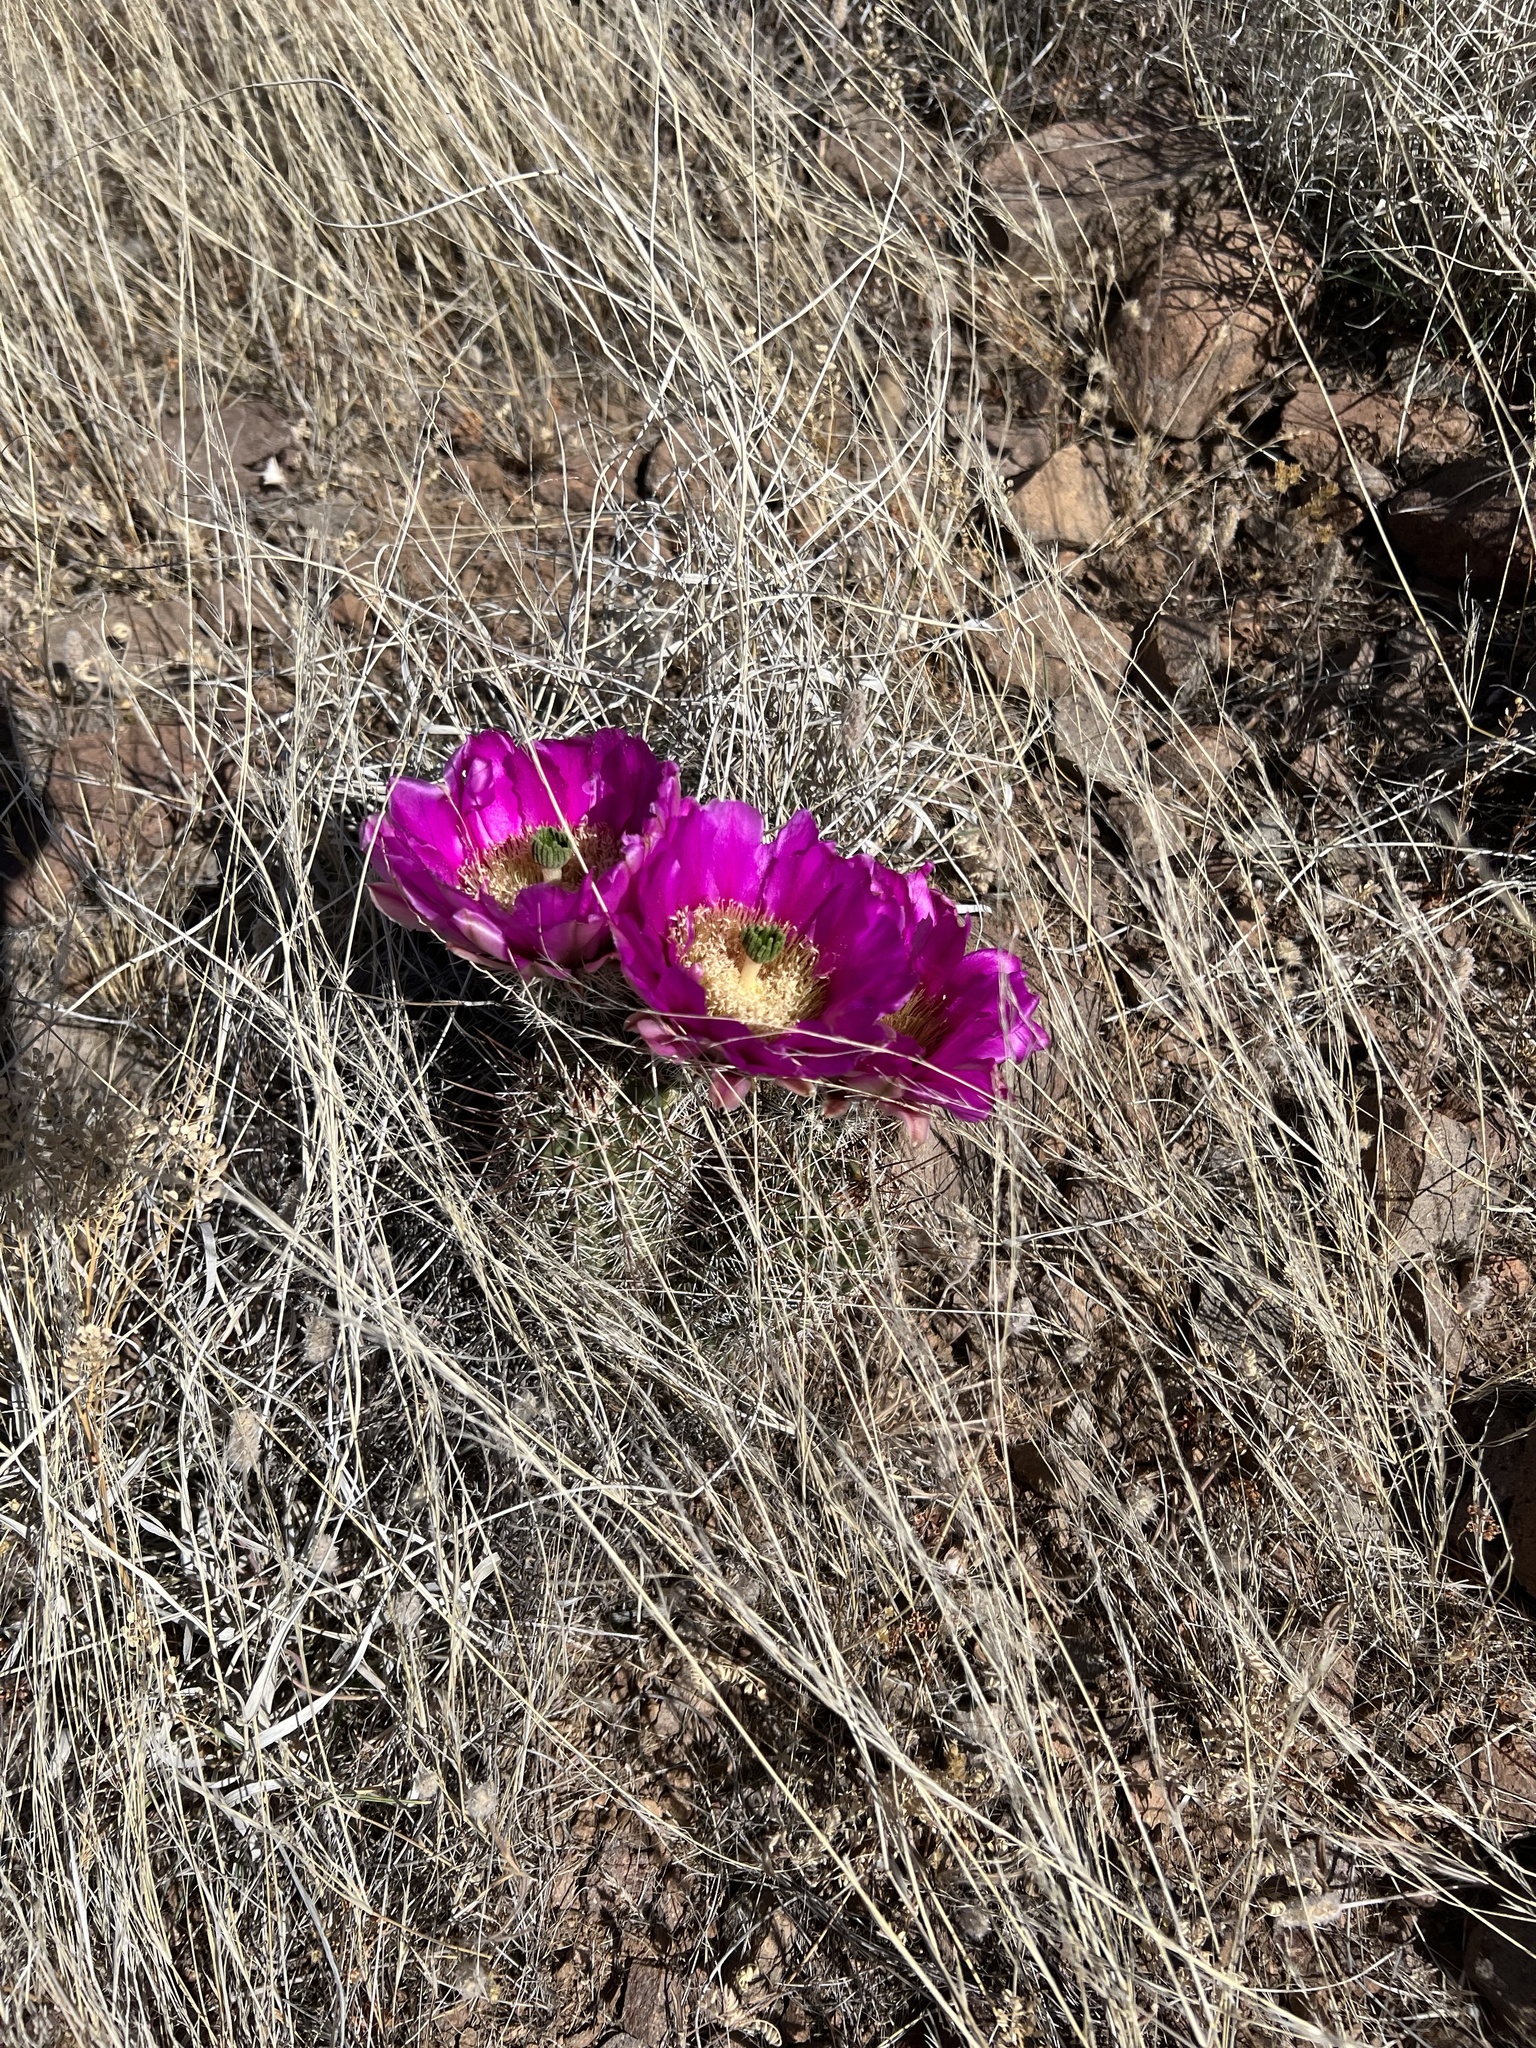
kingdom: Plantae
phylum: Tracheophyta
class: Magnoliopsida
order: Caryophyllales
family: Cactaceae
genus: Echinocereus
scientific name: Echinocereus fendleri
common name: Fendler's hedgehog cactus
